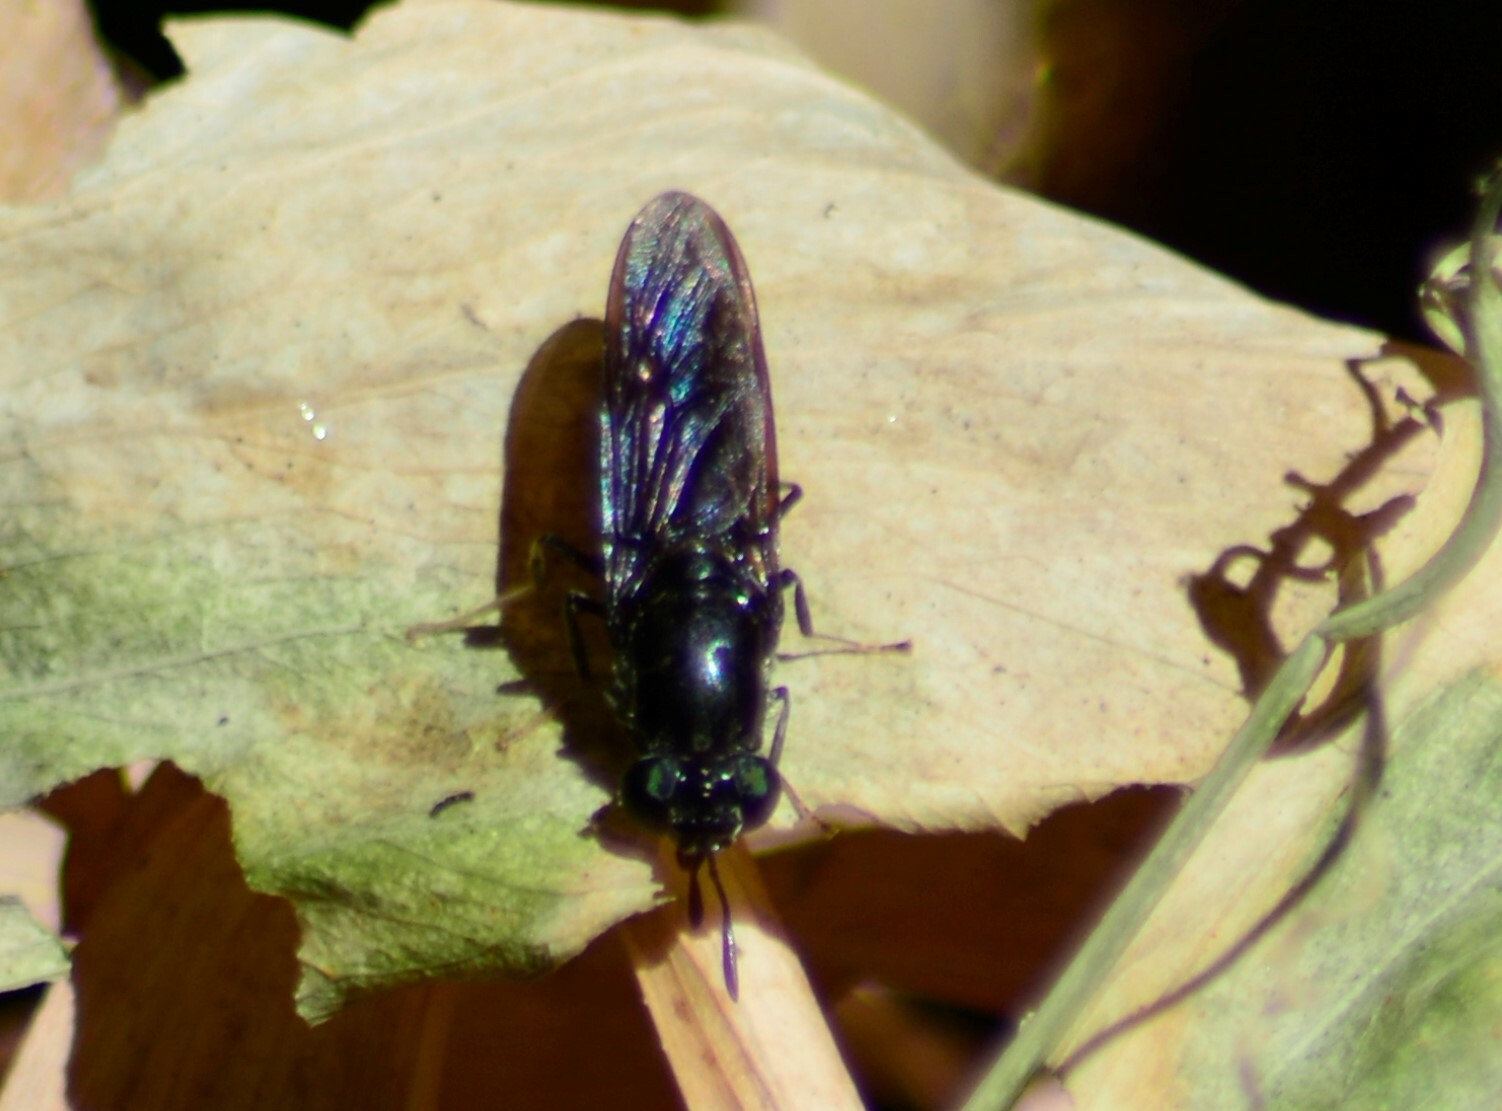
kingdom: Animalia
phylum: Arthropoda
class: Insecta
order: Diptera
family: Stratiomyidae
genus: Hermetia
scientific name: Hermetia illucens
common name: Black soldier fly
